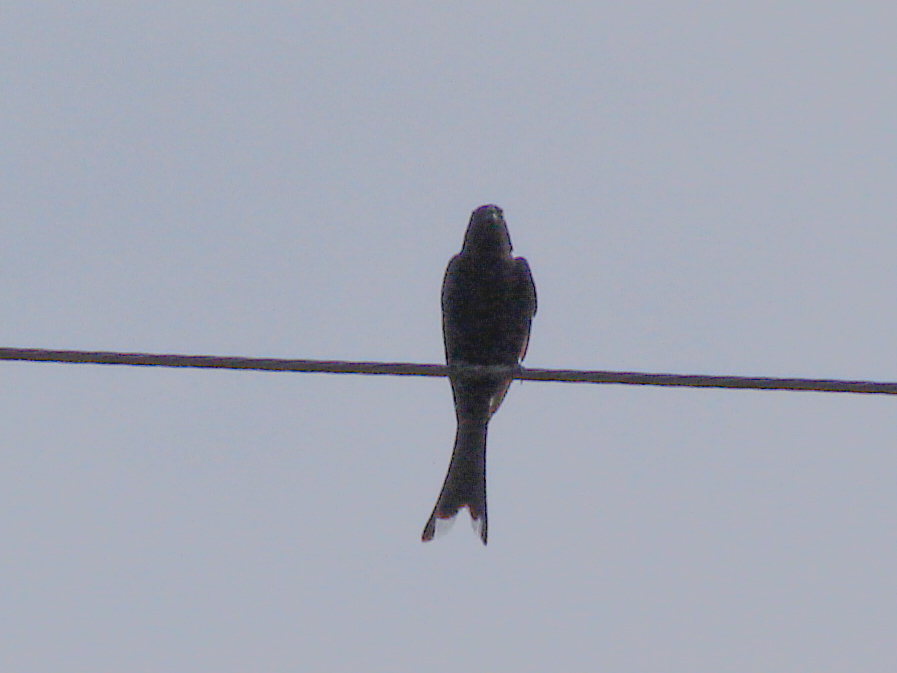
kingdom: Animalia
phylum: Chordata
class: Aves
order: Passeriformes
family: Dicruridae
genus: Dicrurus
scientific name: Dicrurus macrocercus
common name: Black drongo
